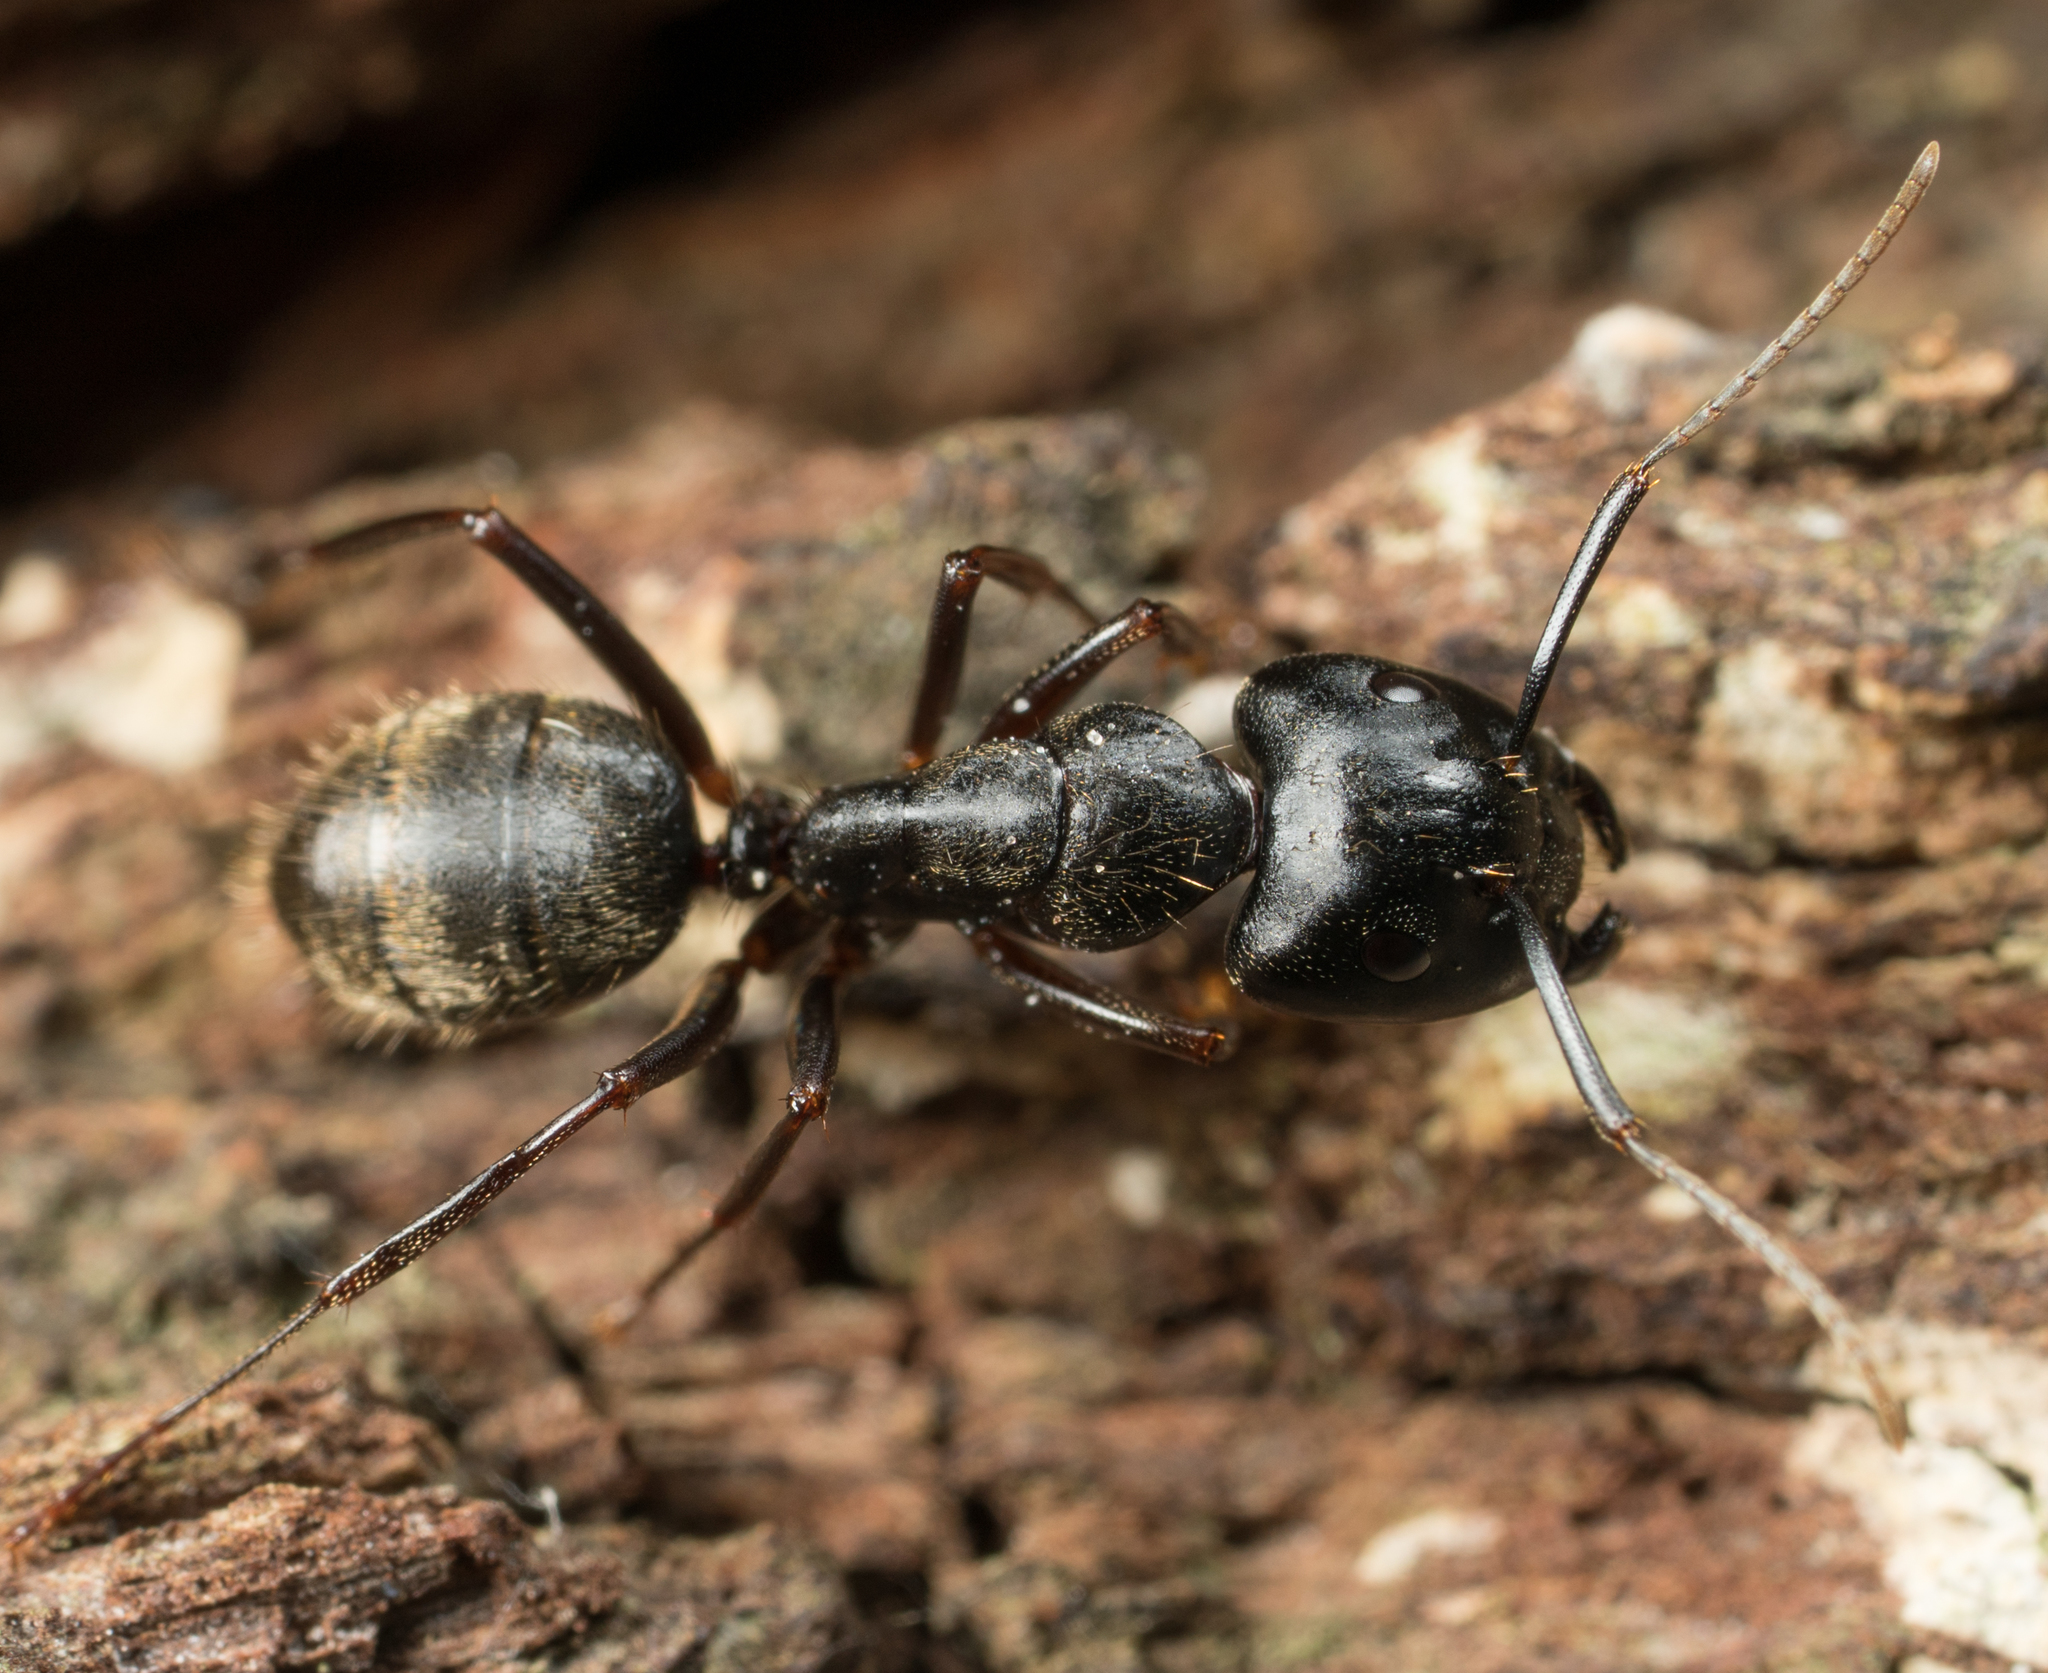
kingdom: Animalia
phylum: Arthropoda
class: Insecta
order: Hymenoptera
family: Formicidae
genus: Camponotus
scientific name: Camponotus pennsylvanicus
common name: Black carpenter ant
